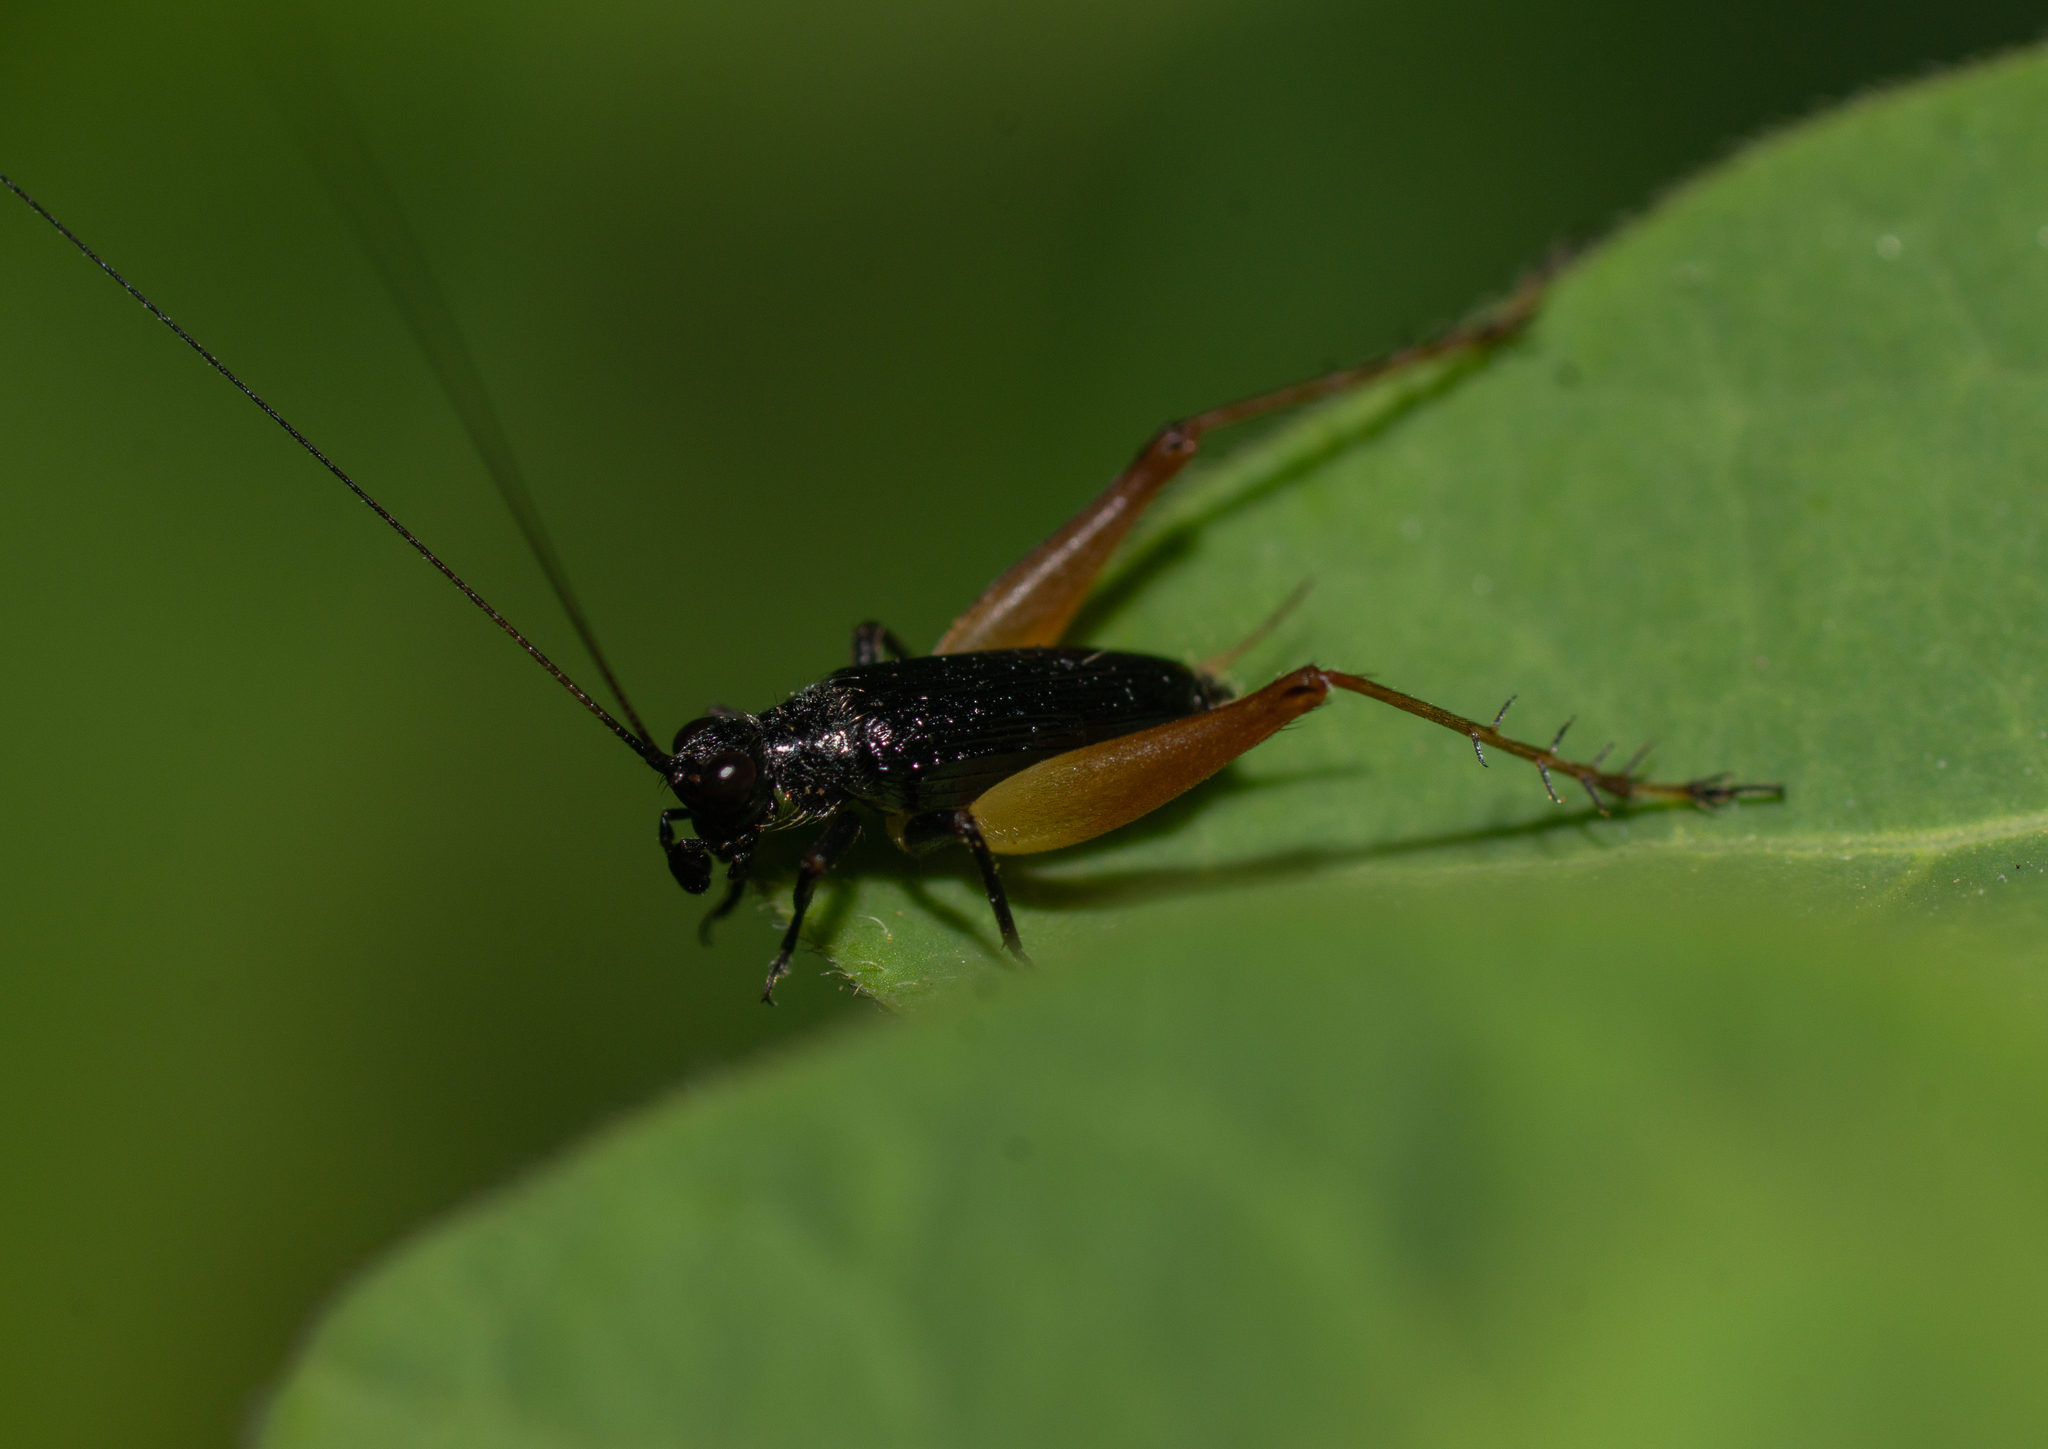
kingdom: Animalia
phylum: Arthropoda
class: Insecta
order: Orthoptera
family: Trigonidiidae
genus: Trigonidium
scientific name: Trigonidium cicindeloides
